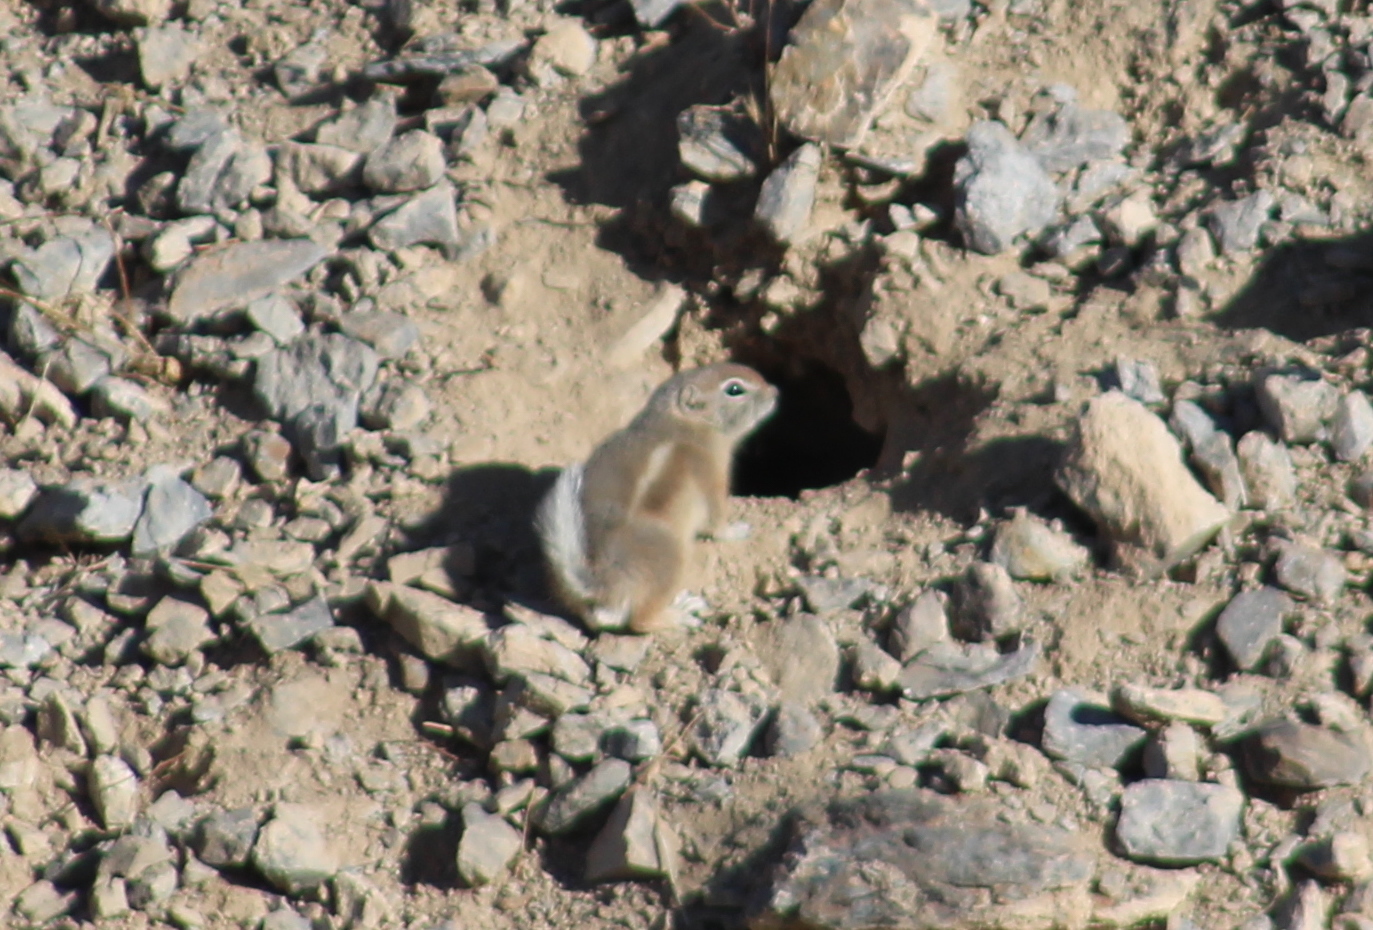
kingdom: Animalia
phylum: Chordata
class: Mammalia
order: Rodentia
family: Sciuridae
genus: Ammospermophilus
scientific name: Ammospermophilus leucurus
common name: White-tailed antelope squirrel
